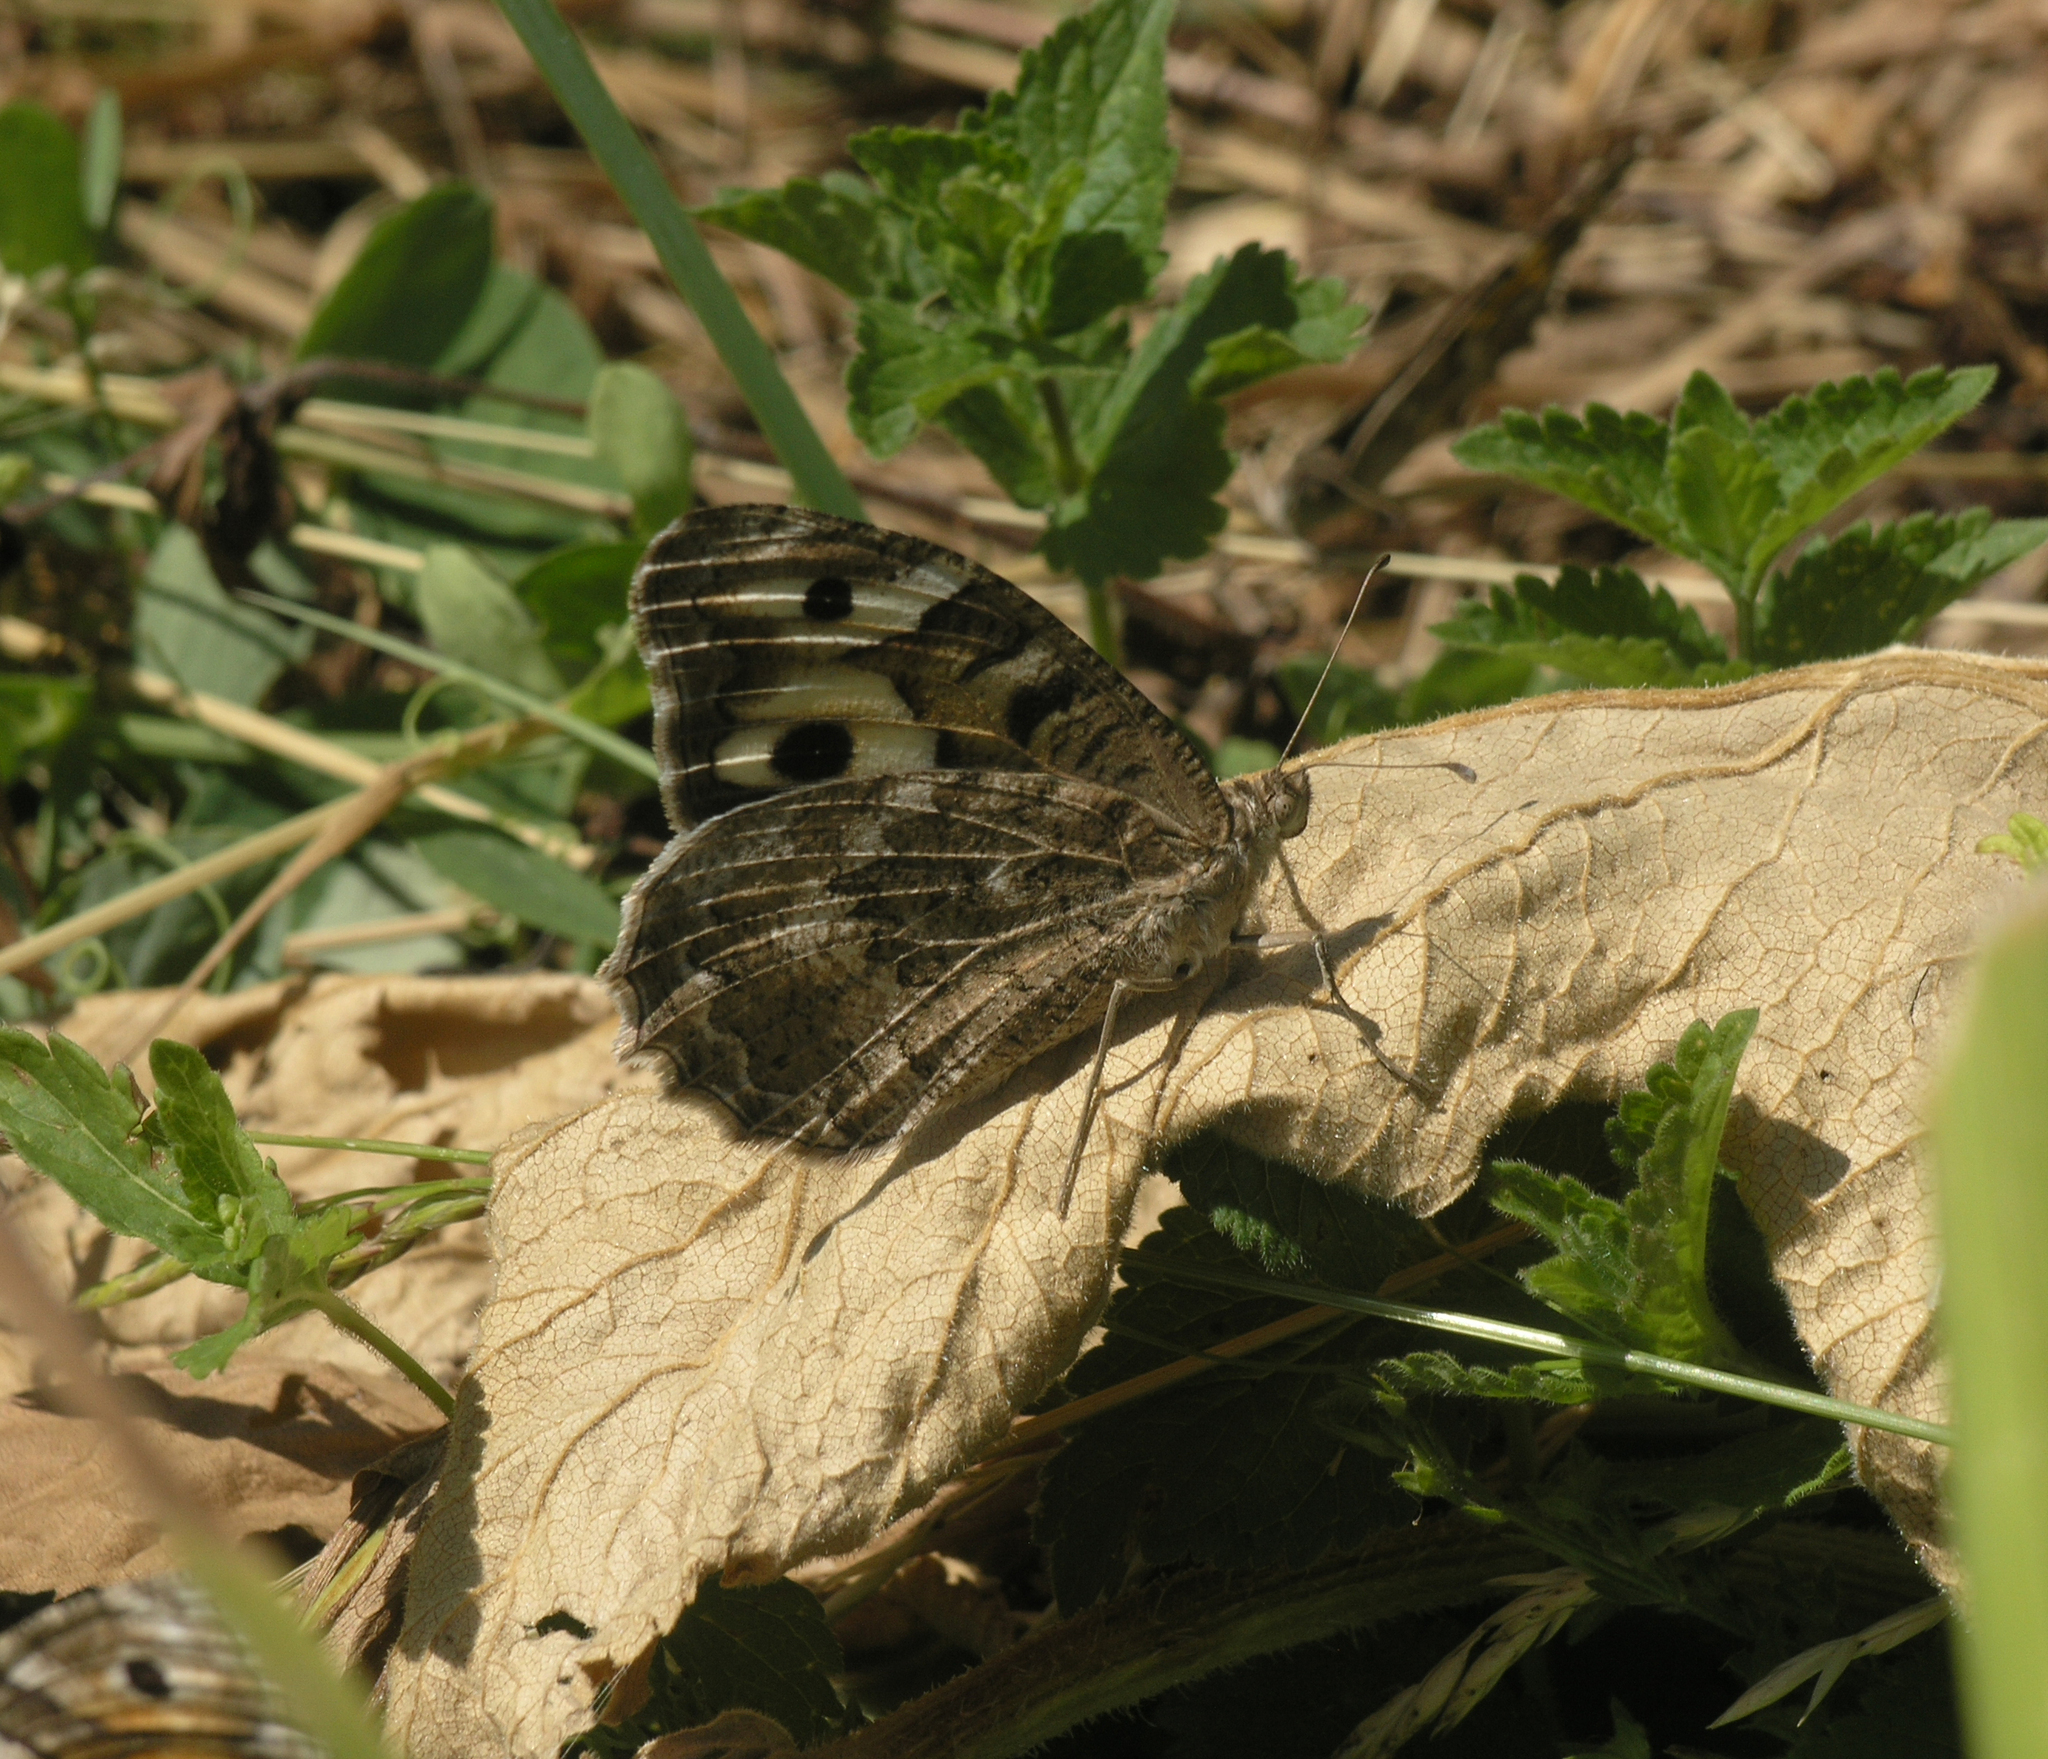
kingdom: Animalia
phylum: Arthropoda
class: Insecta
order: Lepidoptera
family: Nymphalidae
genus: Satyrus
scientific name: Satyrus Chazara enervata
